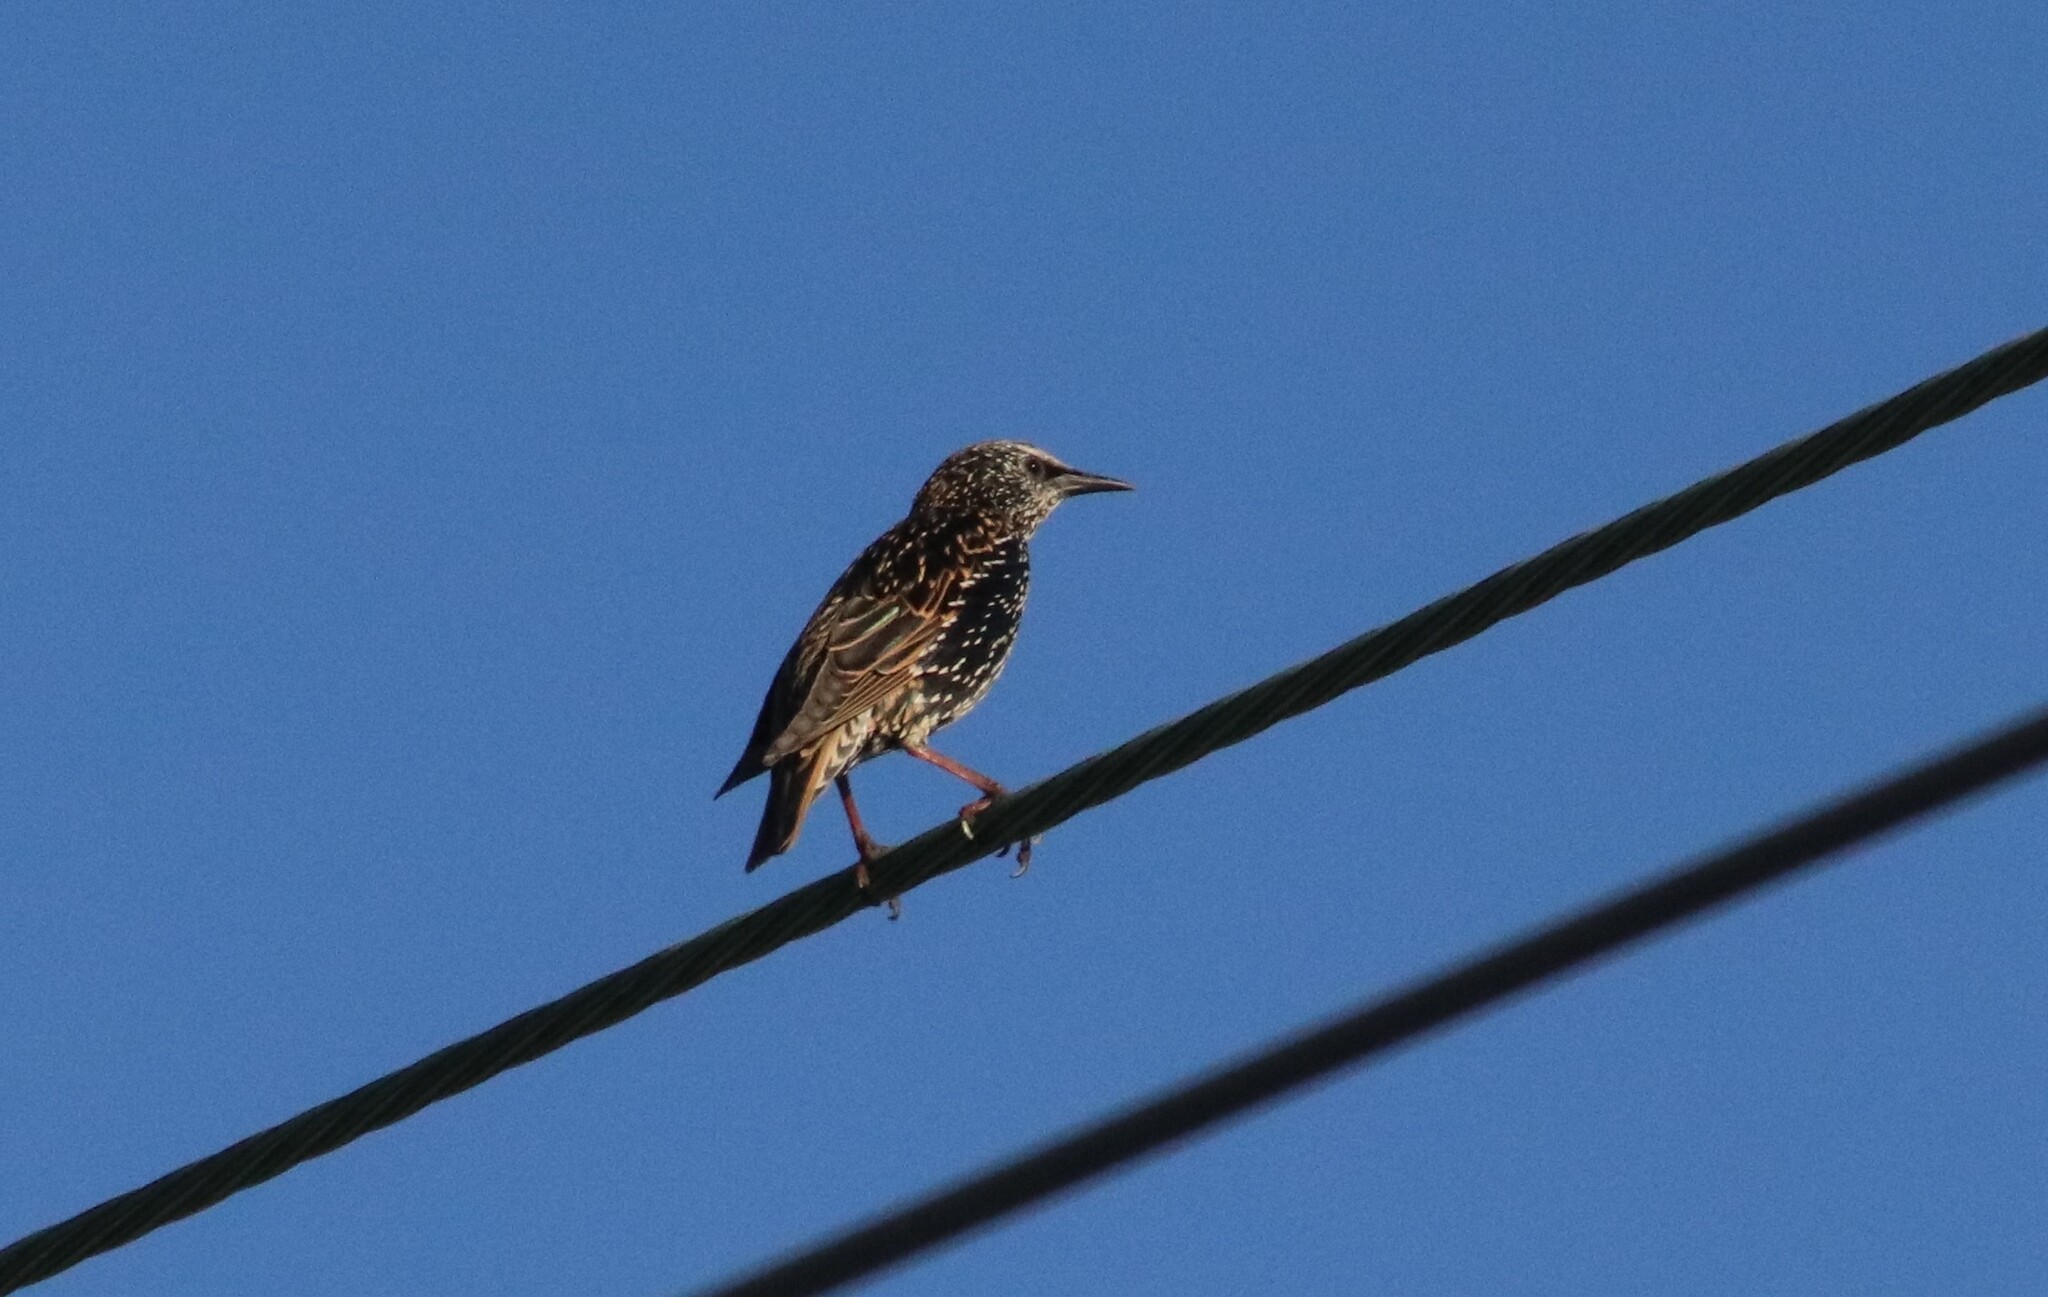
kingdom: Animalia
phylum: Chordata
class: Aves
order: Passeriformes
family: Sturnidae
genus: Sturnus
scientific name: Sturnus vulgaris
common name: Common starling
